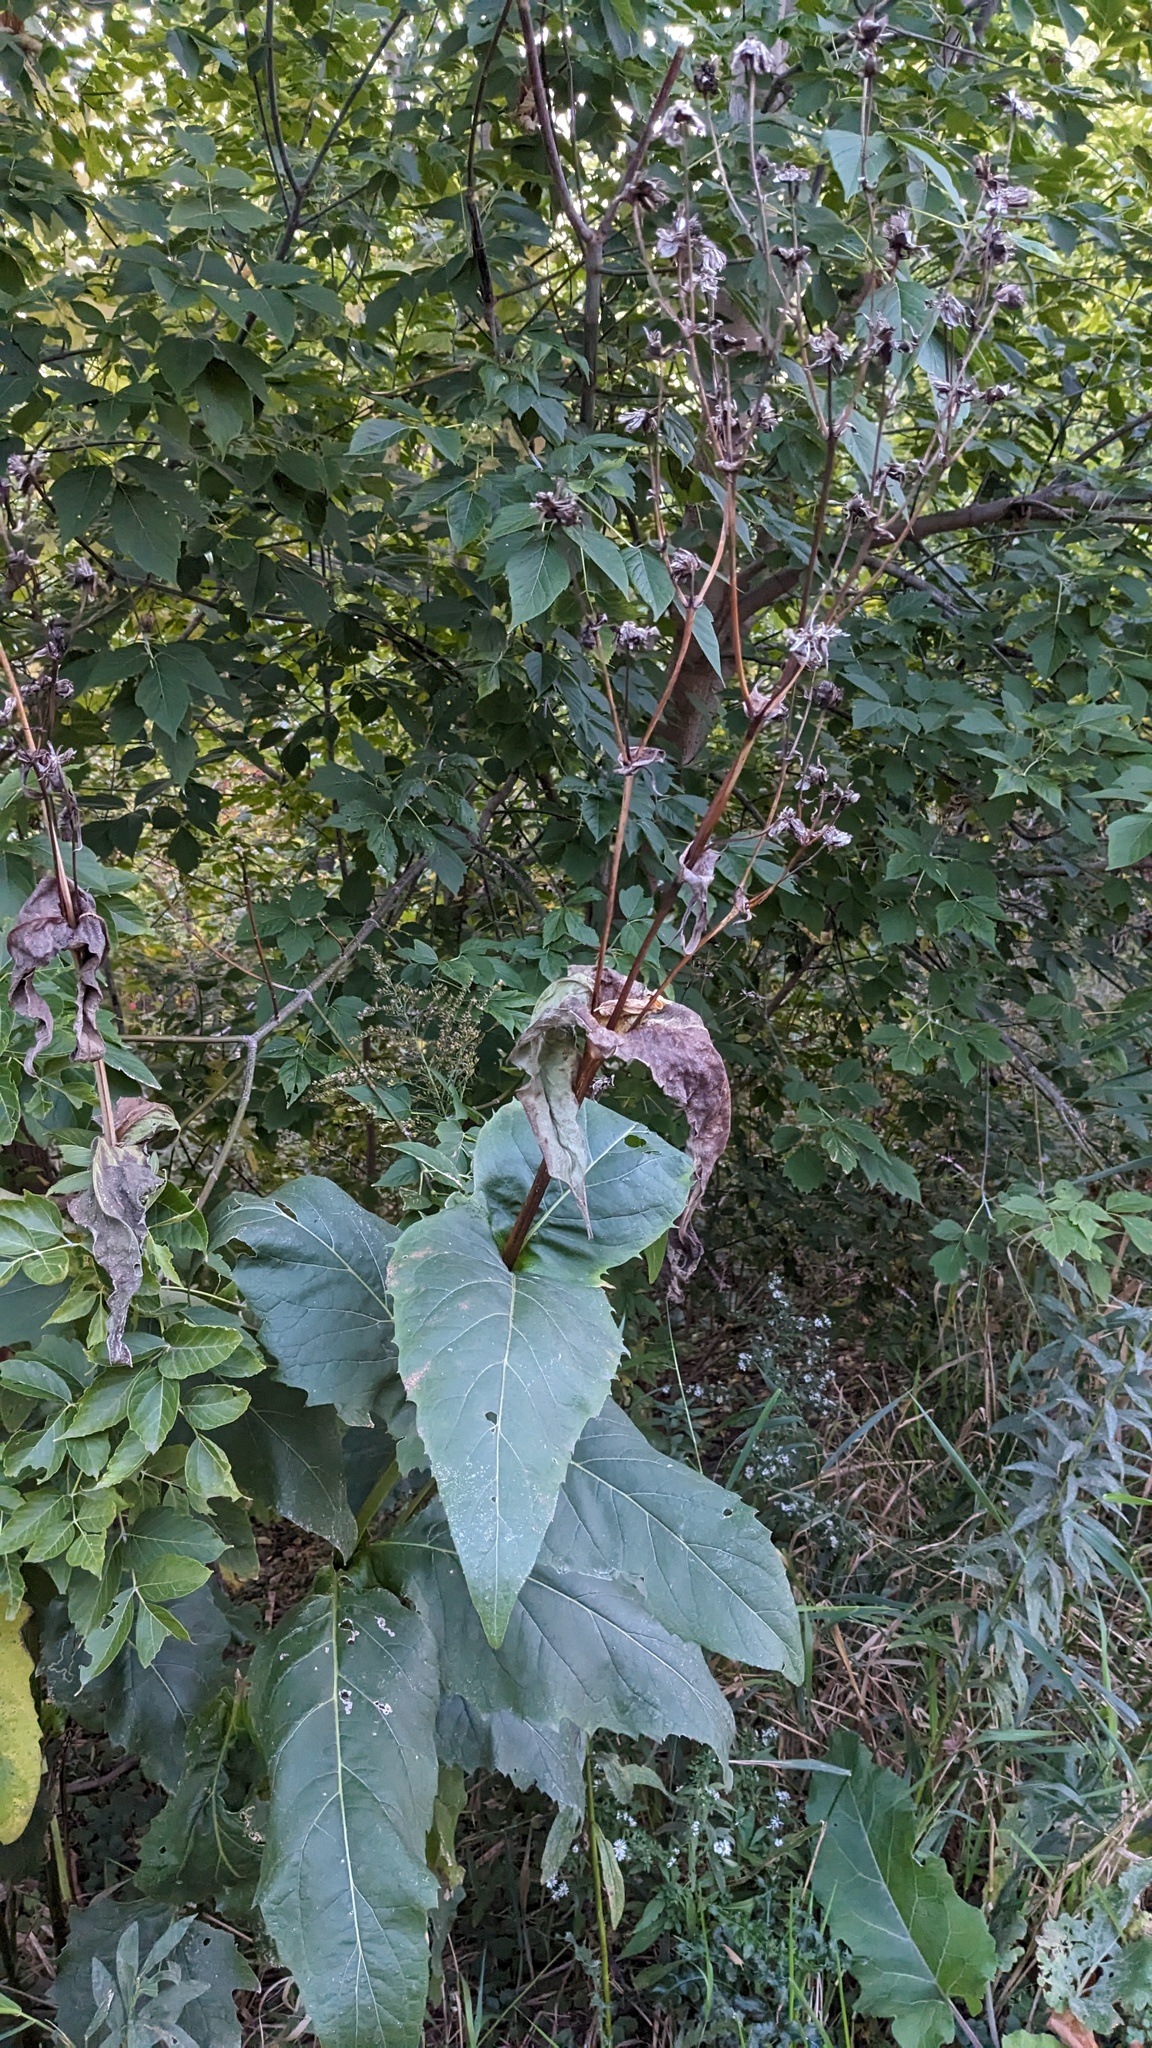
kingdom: Plantae
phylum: Tracheophyta
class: Magnoliopsida
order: Asterales
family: Asteraceae
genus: Silphium
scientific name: Silphium perfoliatum
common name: Cup-plant
